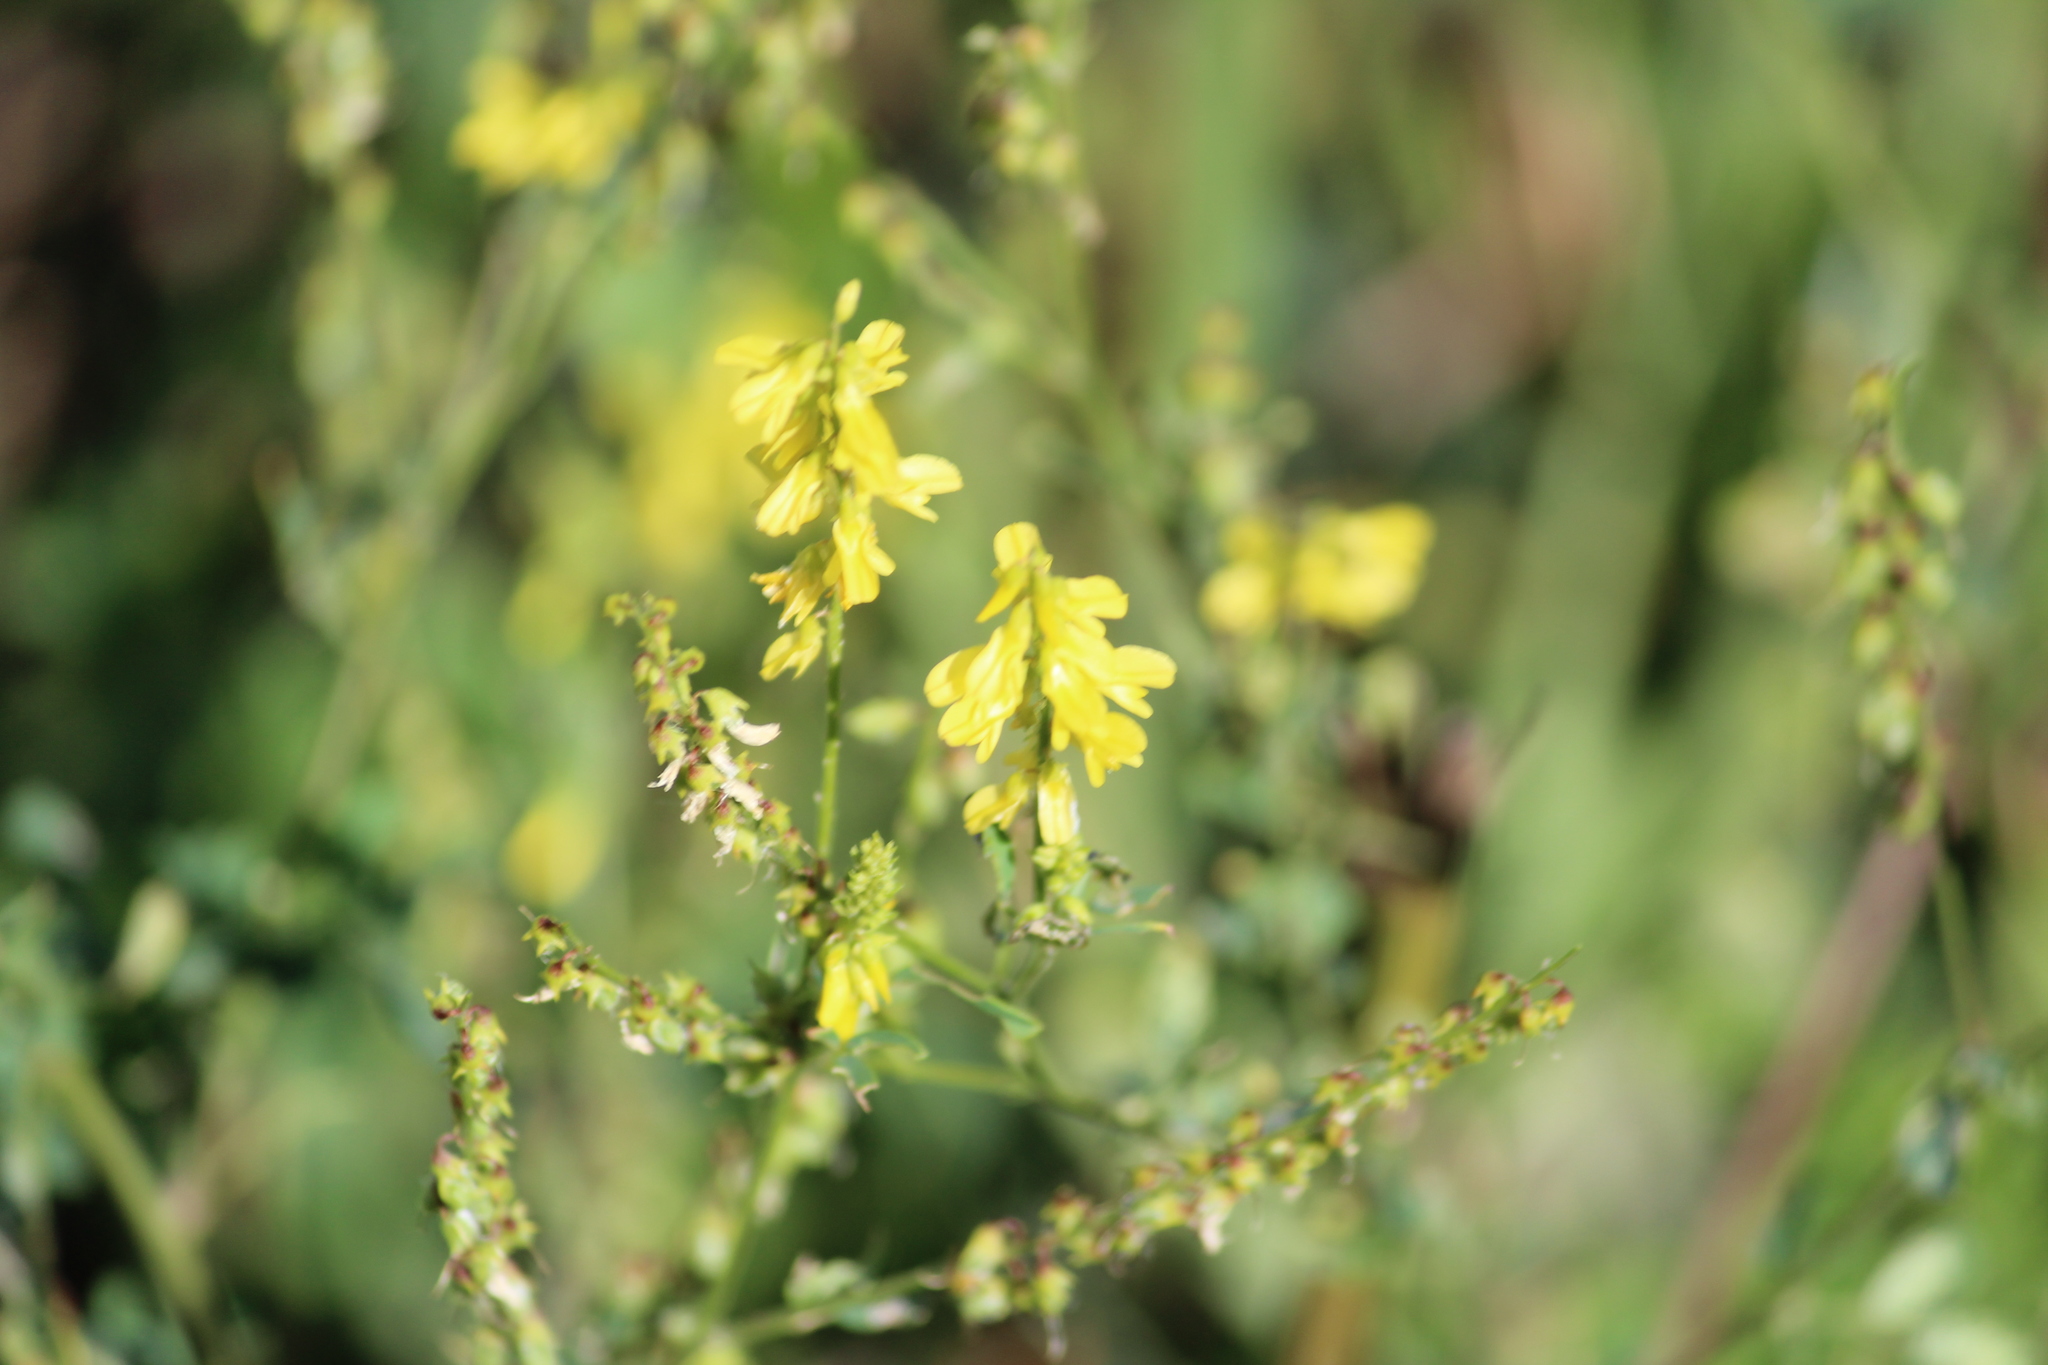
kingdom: Plantae
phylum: Tracheophyta
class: Magnoliopsida
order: Fabales
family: Fabaceae
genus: Melilotus
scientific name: Melilotus officinalis
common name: Sweetclover
